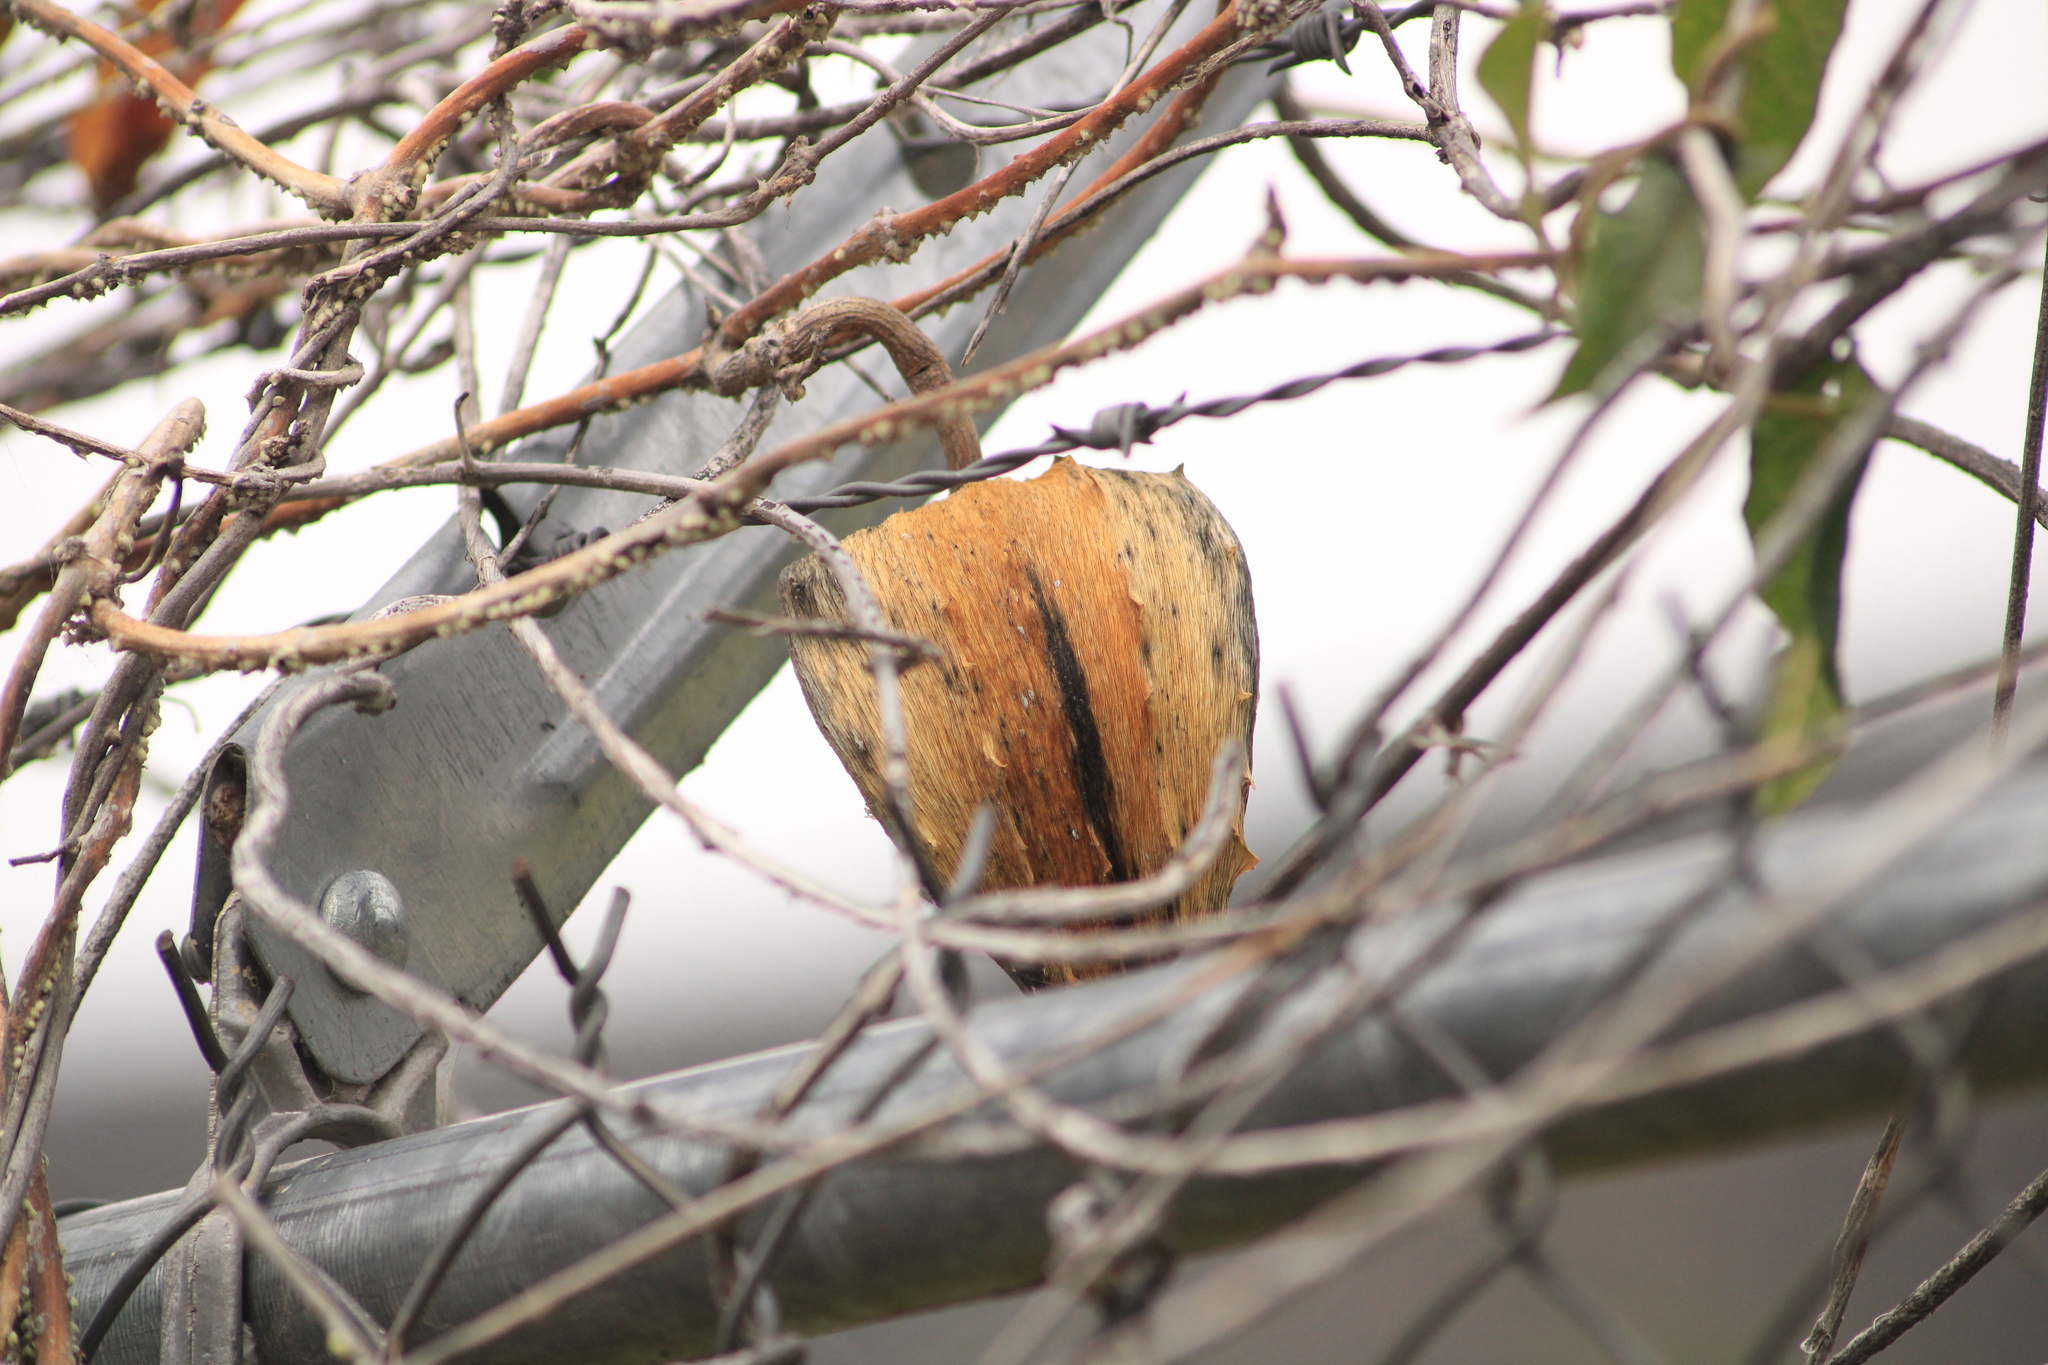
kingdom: Plantae
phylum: Tracheophyta
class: Magnoliopsida
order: Gentianales
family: Apocynaceae
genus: Gonolobus
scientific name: Gonolobus grandiflorus
